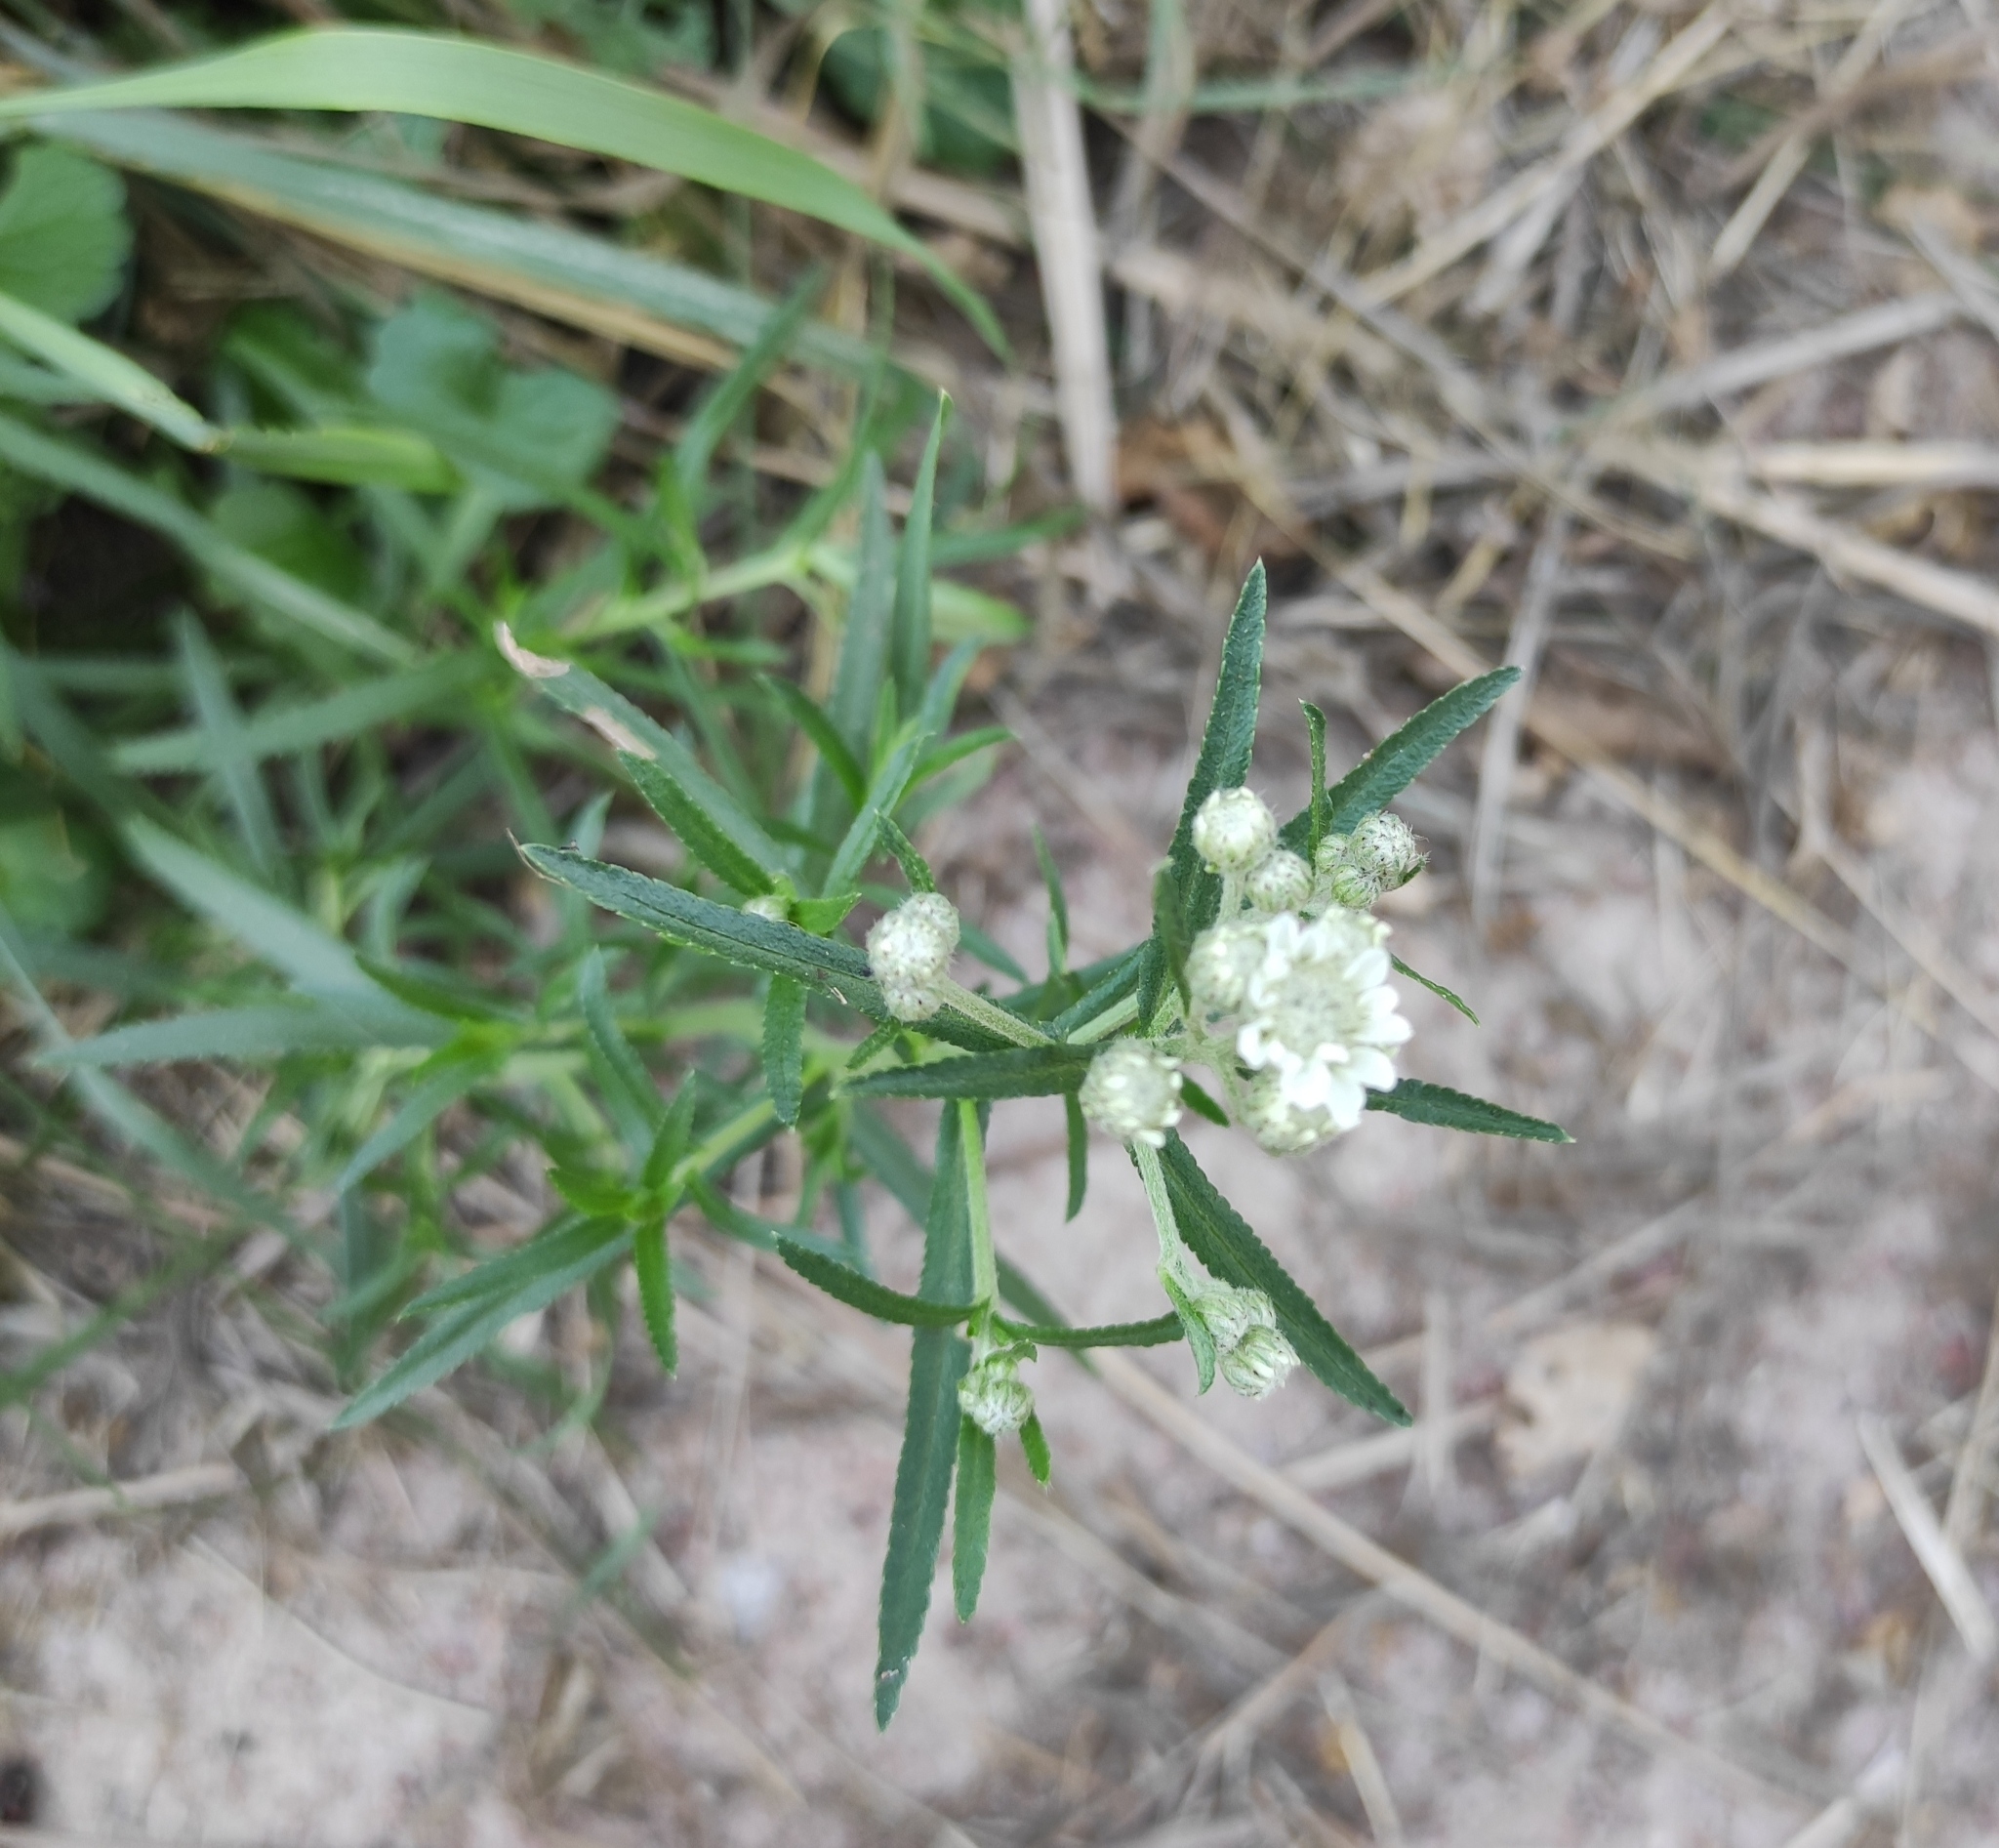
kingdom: Plantae
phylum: Tracheophyta
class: Magnoliopsida
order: Asterales
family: Asteraceae
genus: Achillea
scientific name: Achillea ptarmica
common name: Sneezeweed
